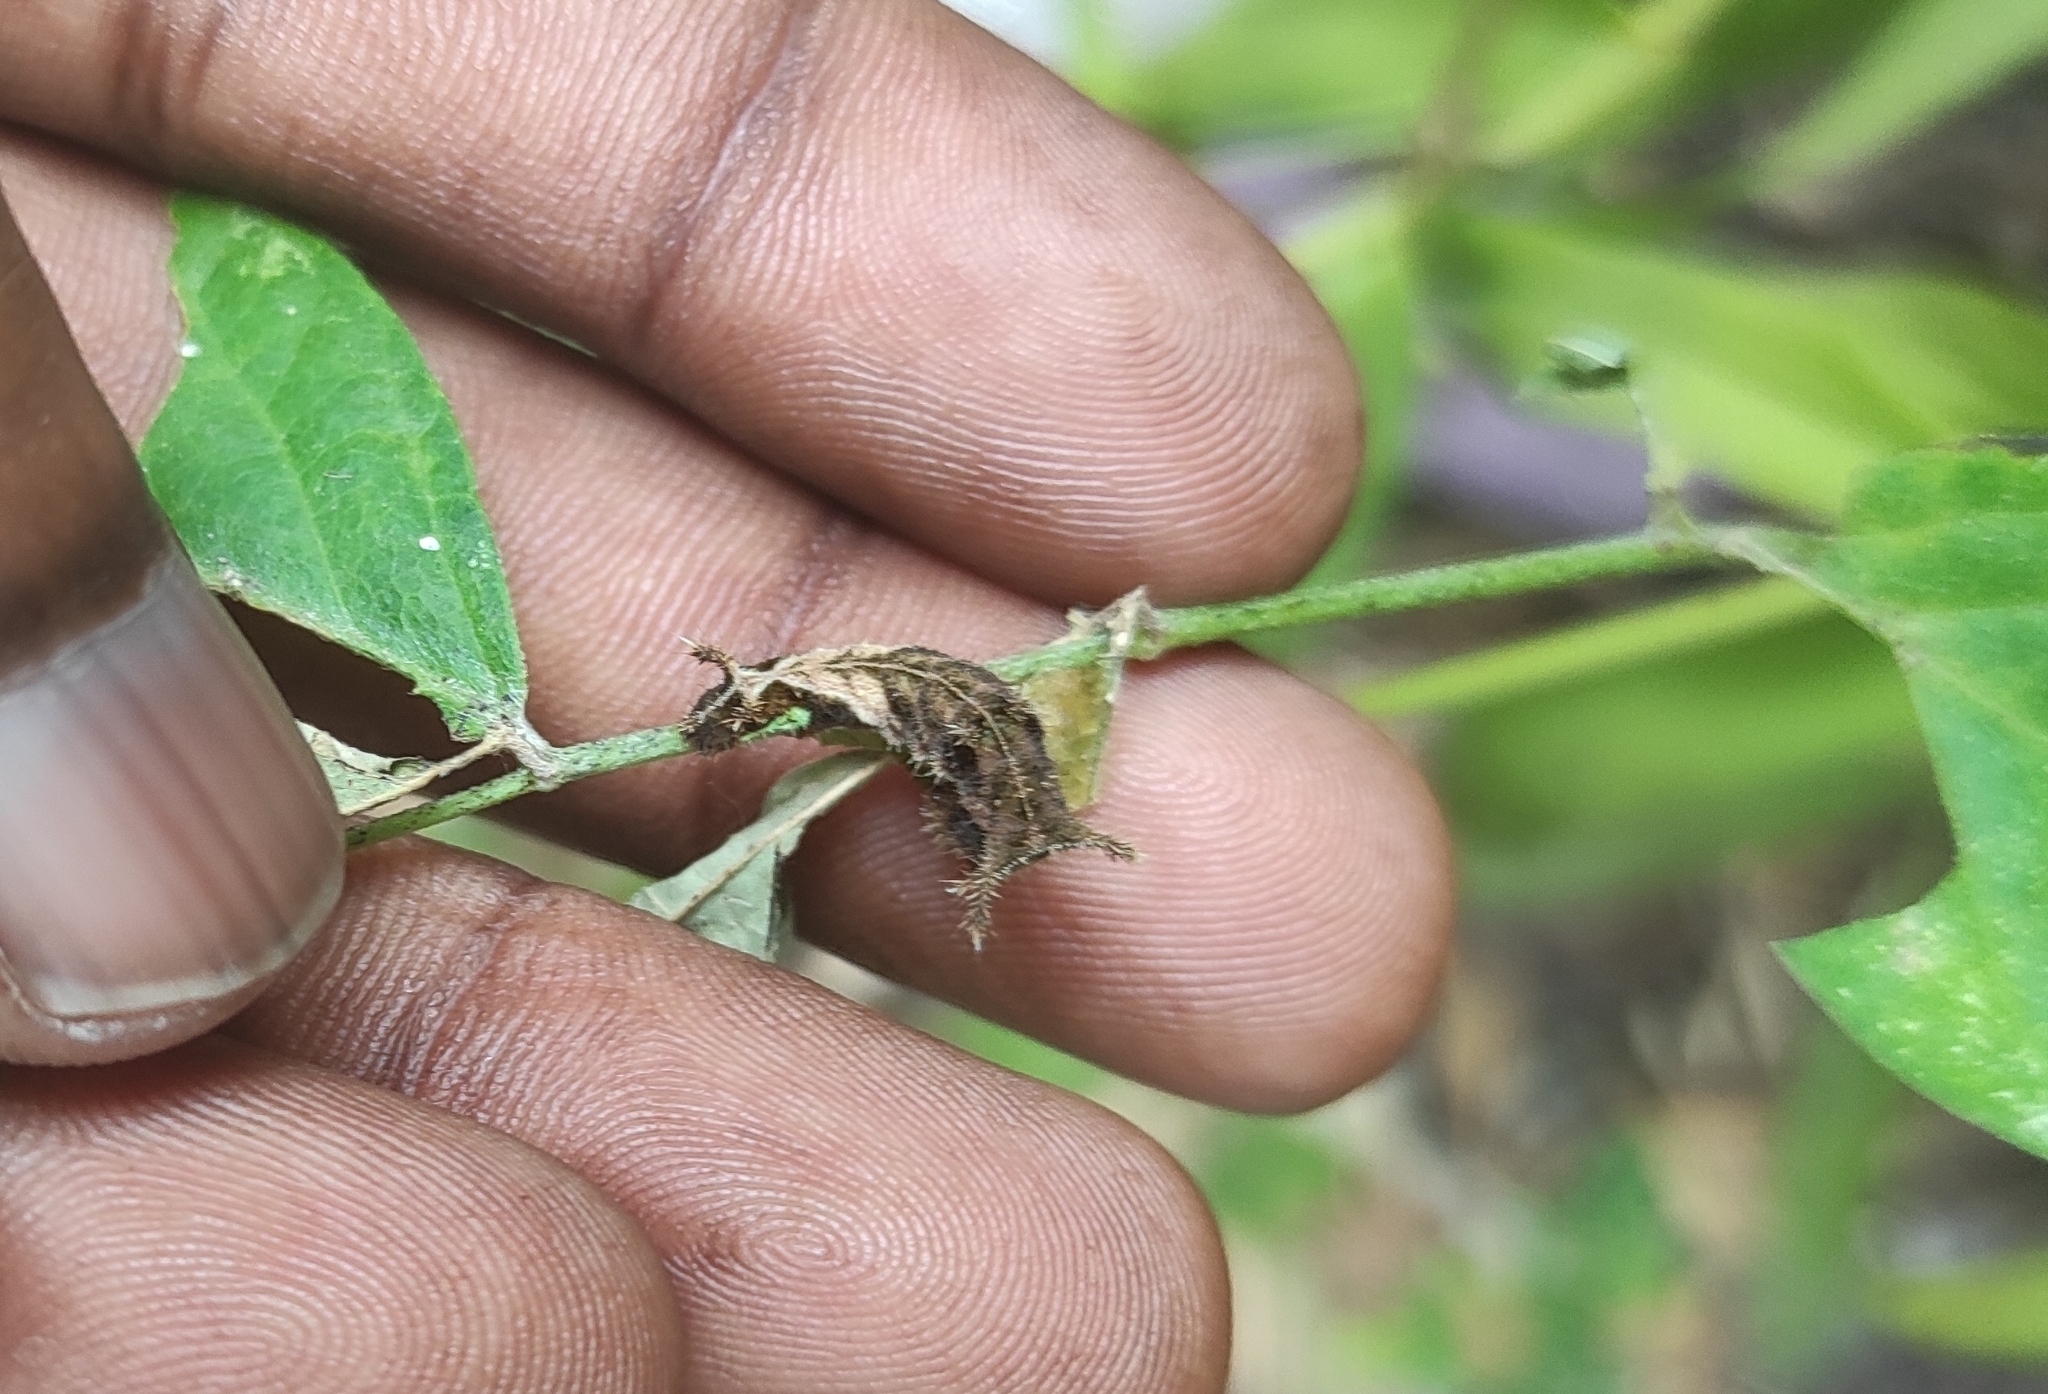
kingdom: Animalia
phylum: Arthropoda
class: Insecta
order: Lepidoptera
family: Nymphalidae
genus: Neptis
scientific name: Neptis jumbah
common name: Chestnut-streaked sailer
